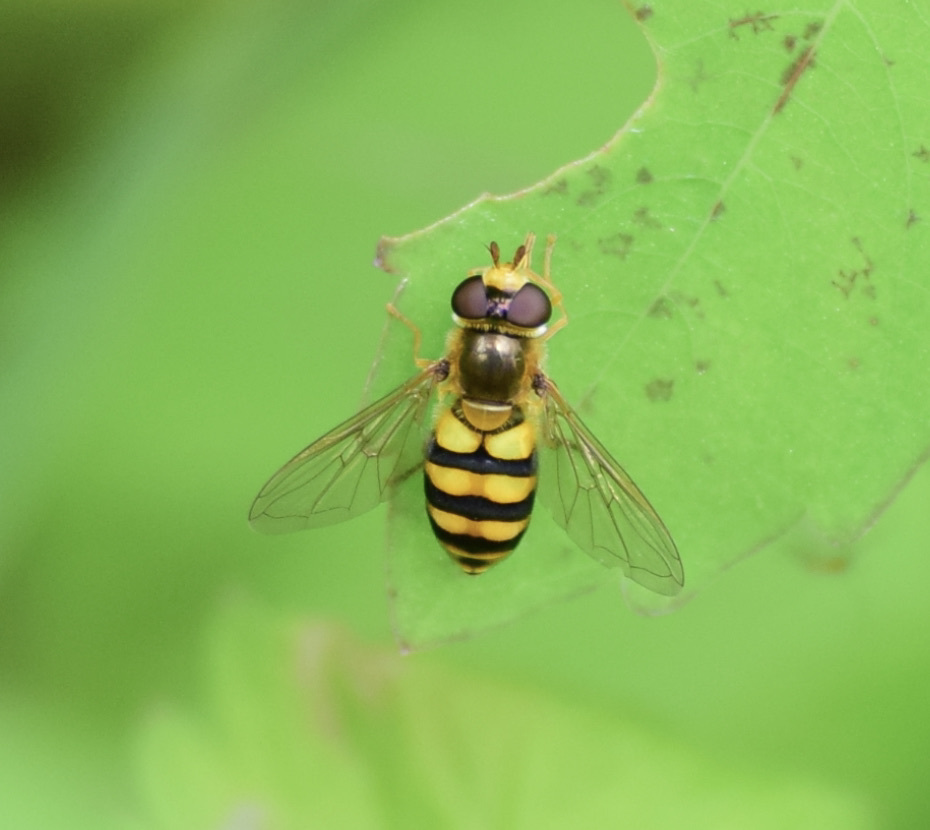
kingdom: Animalia
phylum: Arthropoda
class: Insecta
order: Diptera
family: Syrphidae
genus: Eupeodes
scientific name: Eupeodes latifasciatus
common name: Variable aphideater
